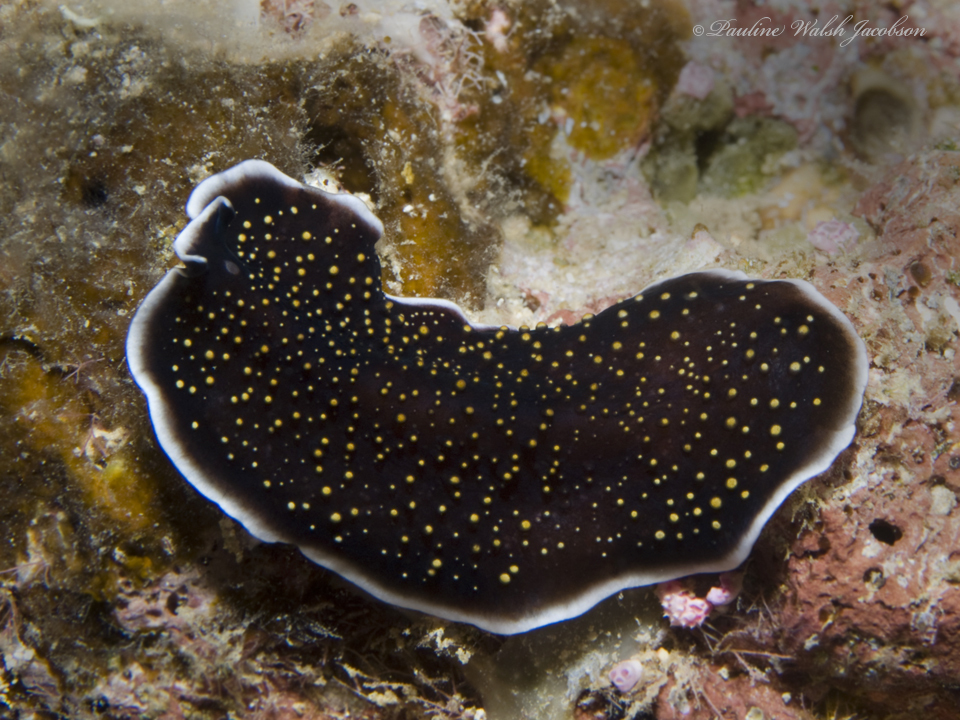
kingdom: Animalia
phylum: Platyhelminthes
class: Turbellaria
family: Pseudocerotidae
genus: Thysanozoon
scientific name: Thysanozoon nigropapillosum
